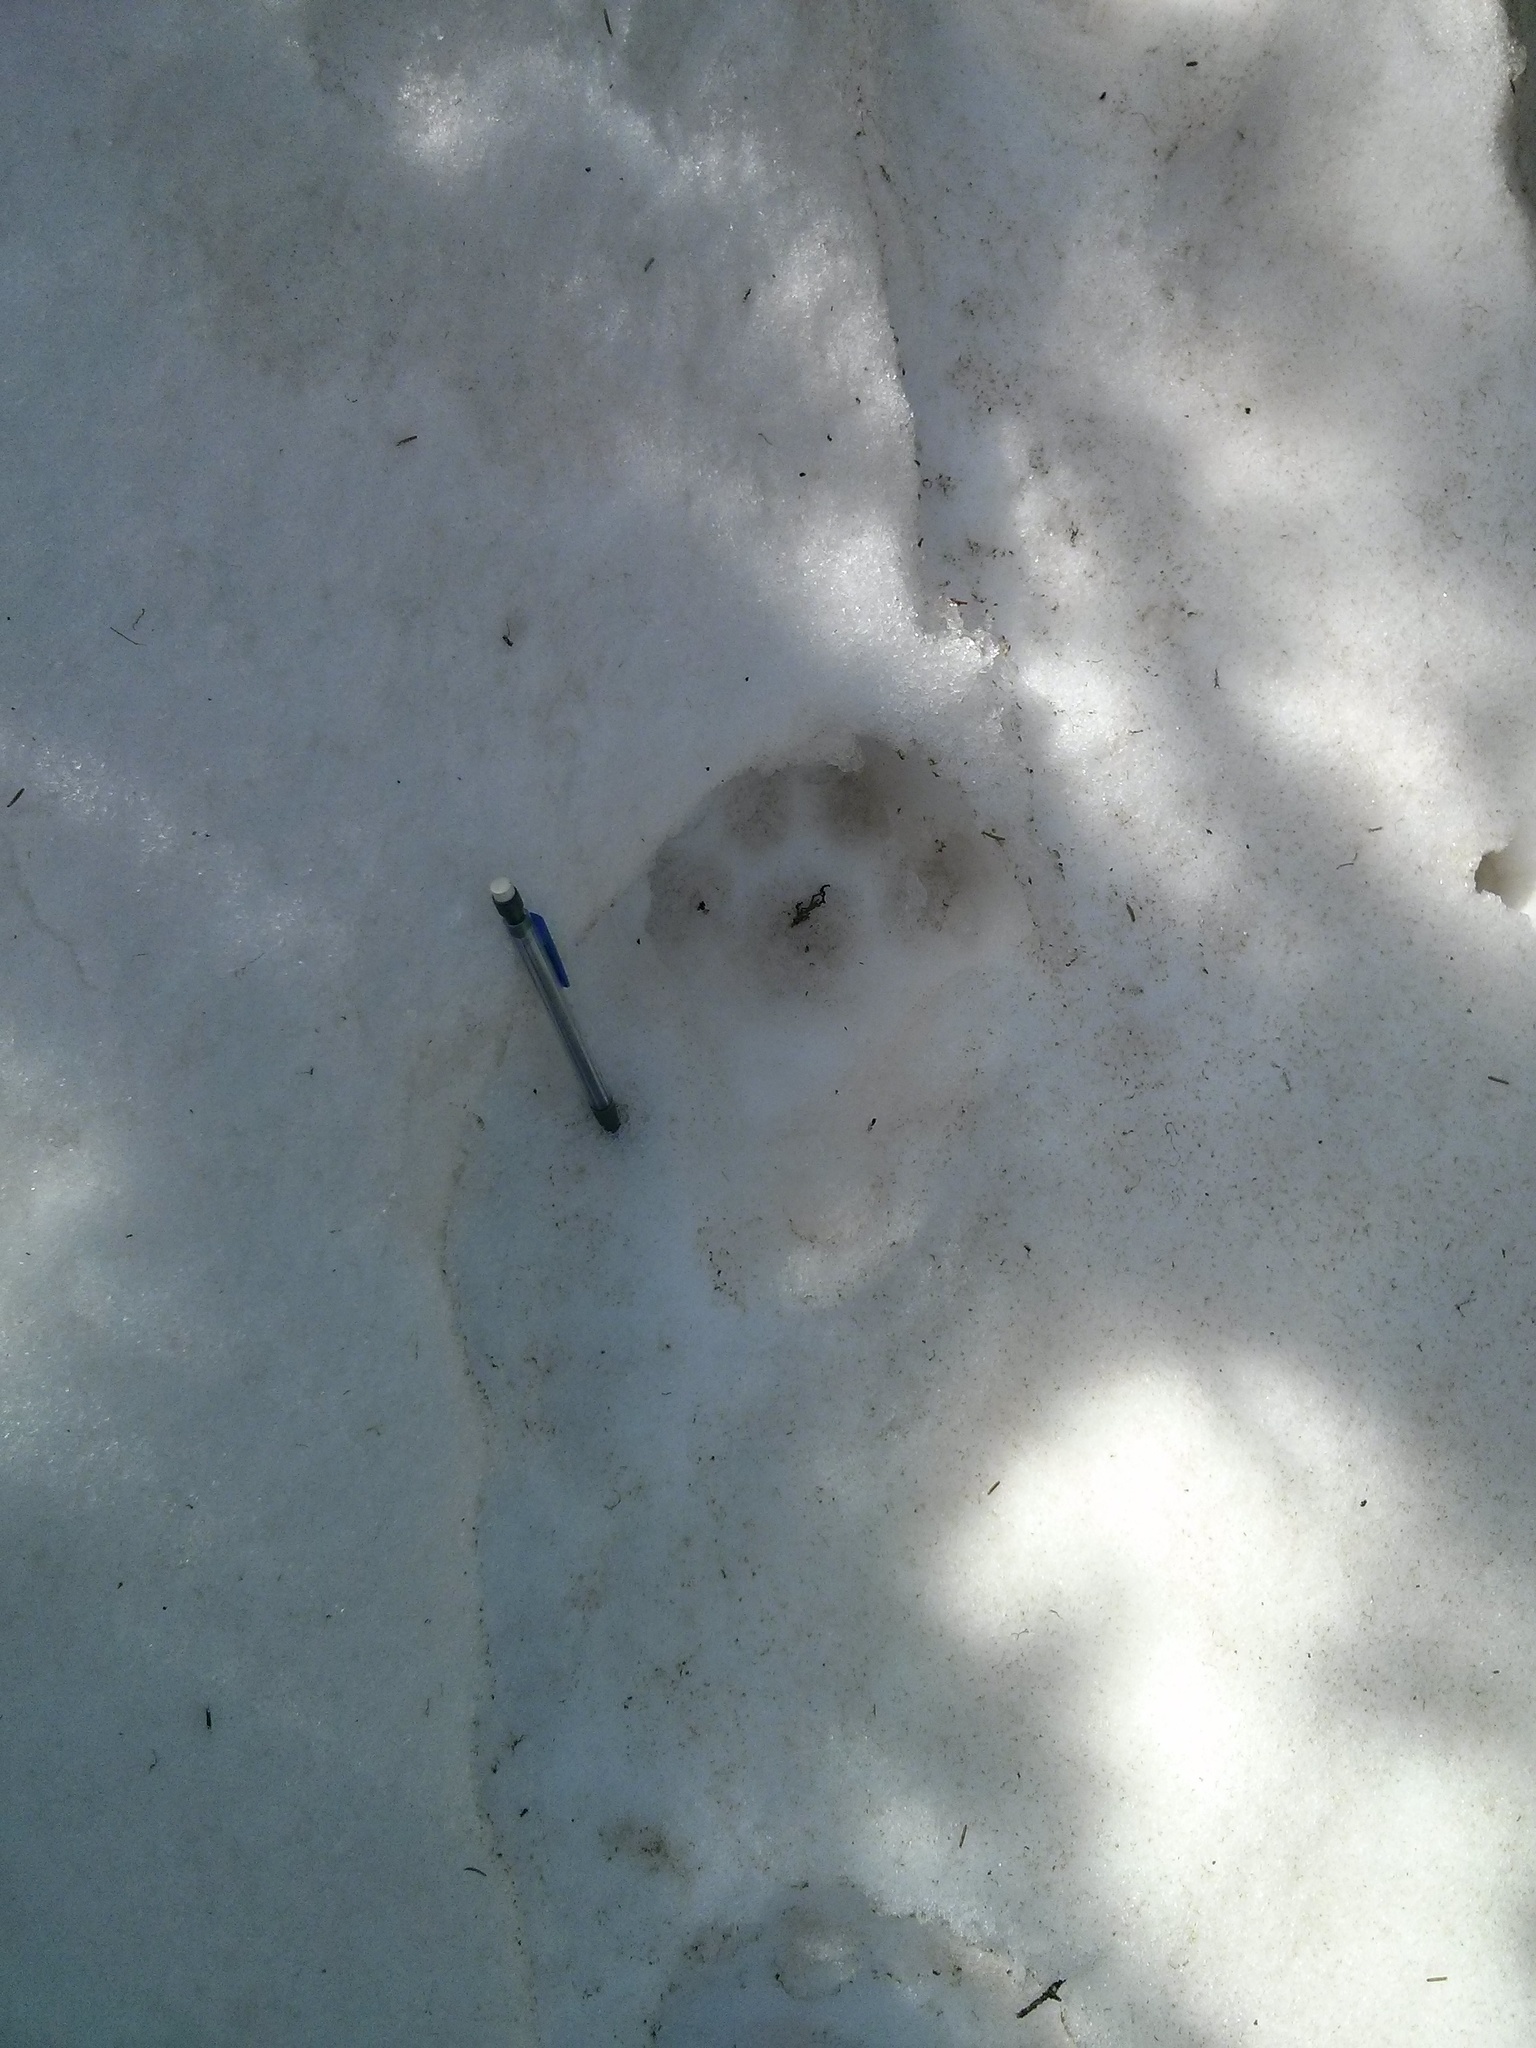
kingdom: Animalia
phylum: Chordata
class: Mammalia
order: Carnivora
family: Felidae
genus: Lynx
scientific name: Lynx canadensis
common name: Canadian lynx
